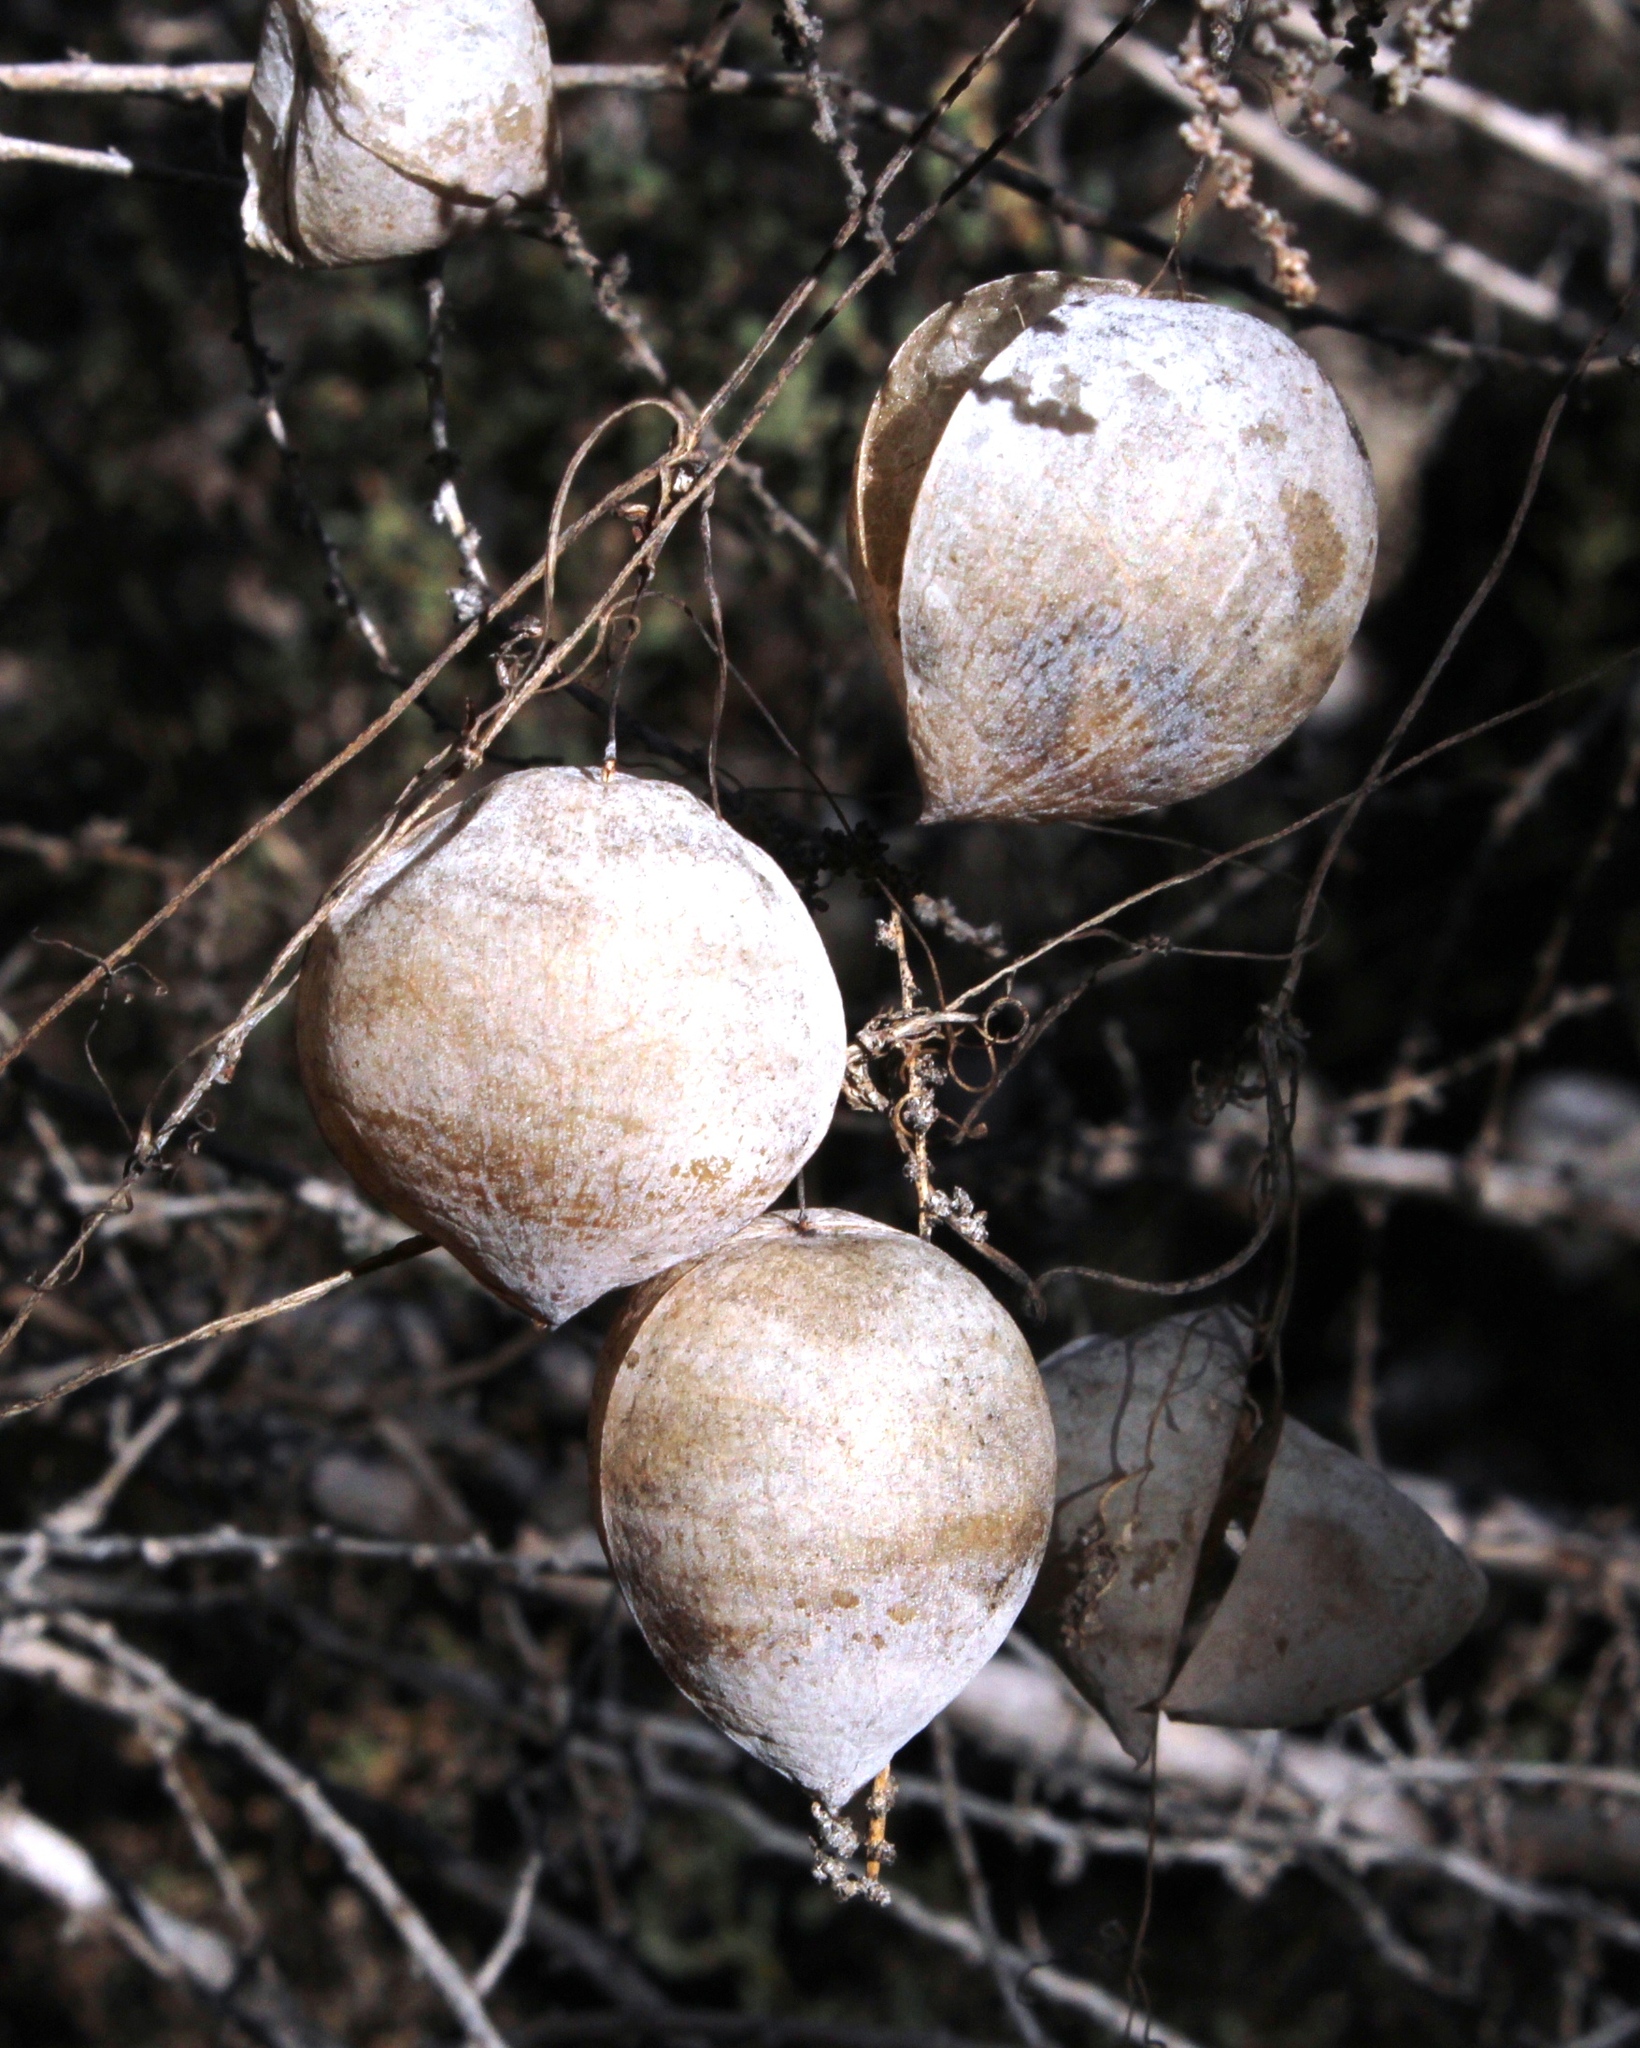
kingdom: Plantae
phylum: Tracheophyta
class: Magnoliopsida
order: Ranunculales
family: Papaveraceae
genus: Cysticapnos
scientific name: Cysticapnos vesicaria
